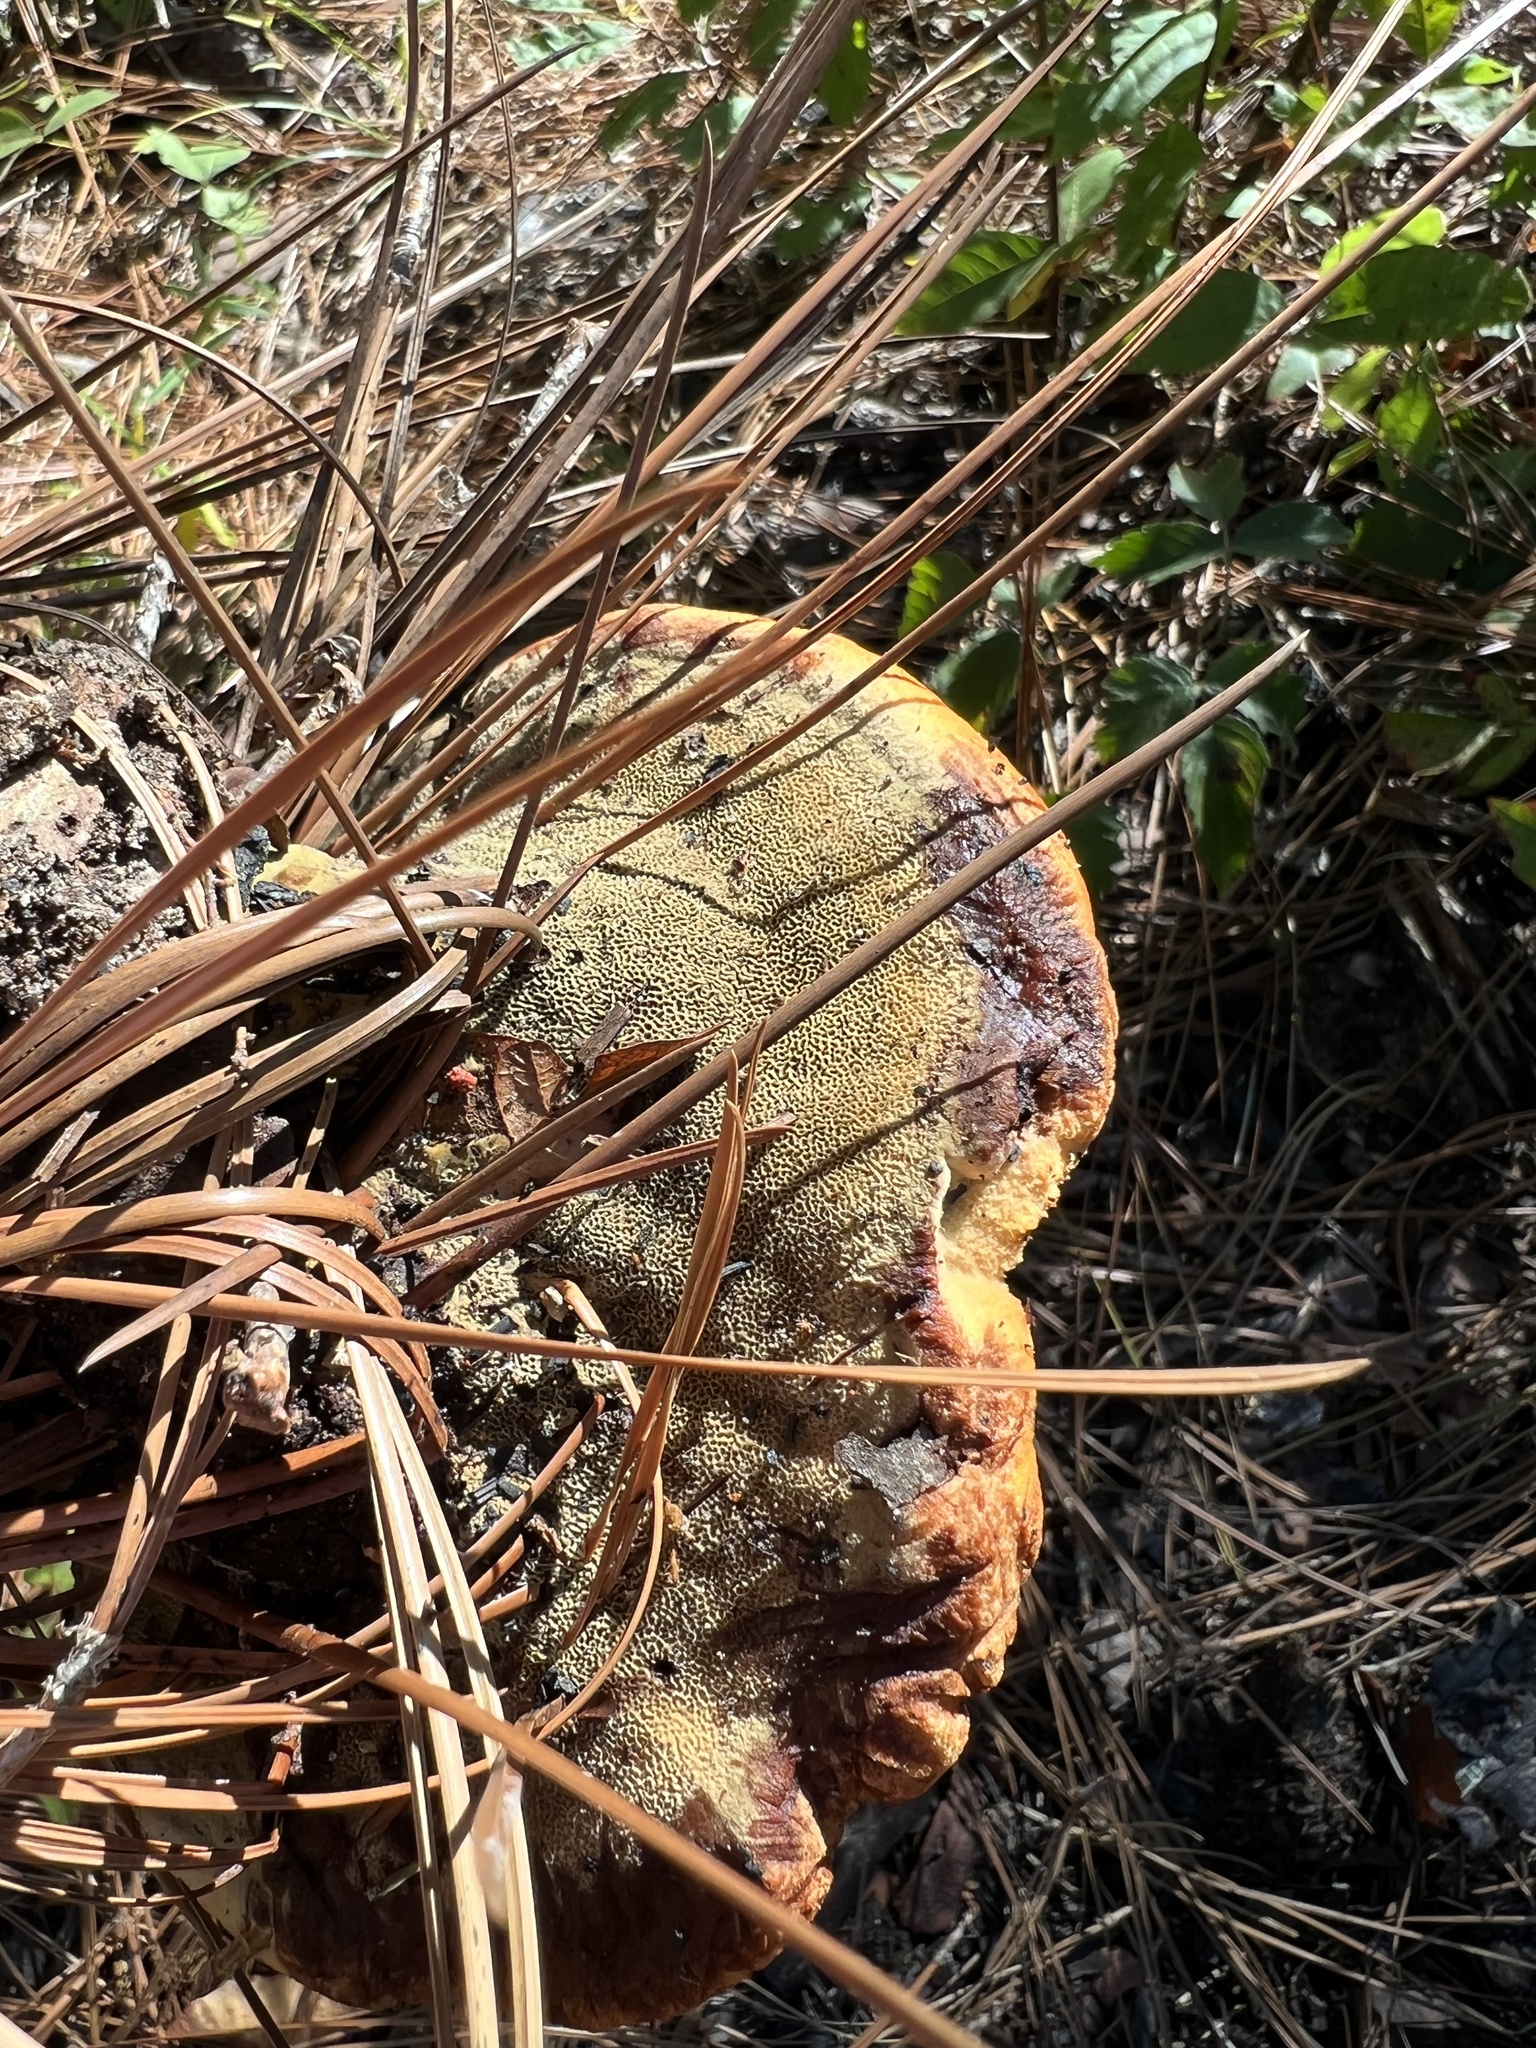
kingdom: Fungi
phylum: Basidiomycota
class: Agaricomycetes
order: Polyporales
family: Laetiporaceae
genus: Phaeolus
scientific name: Phaeolus schweinitzii
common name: Dyer's mazegill
